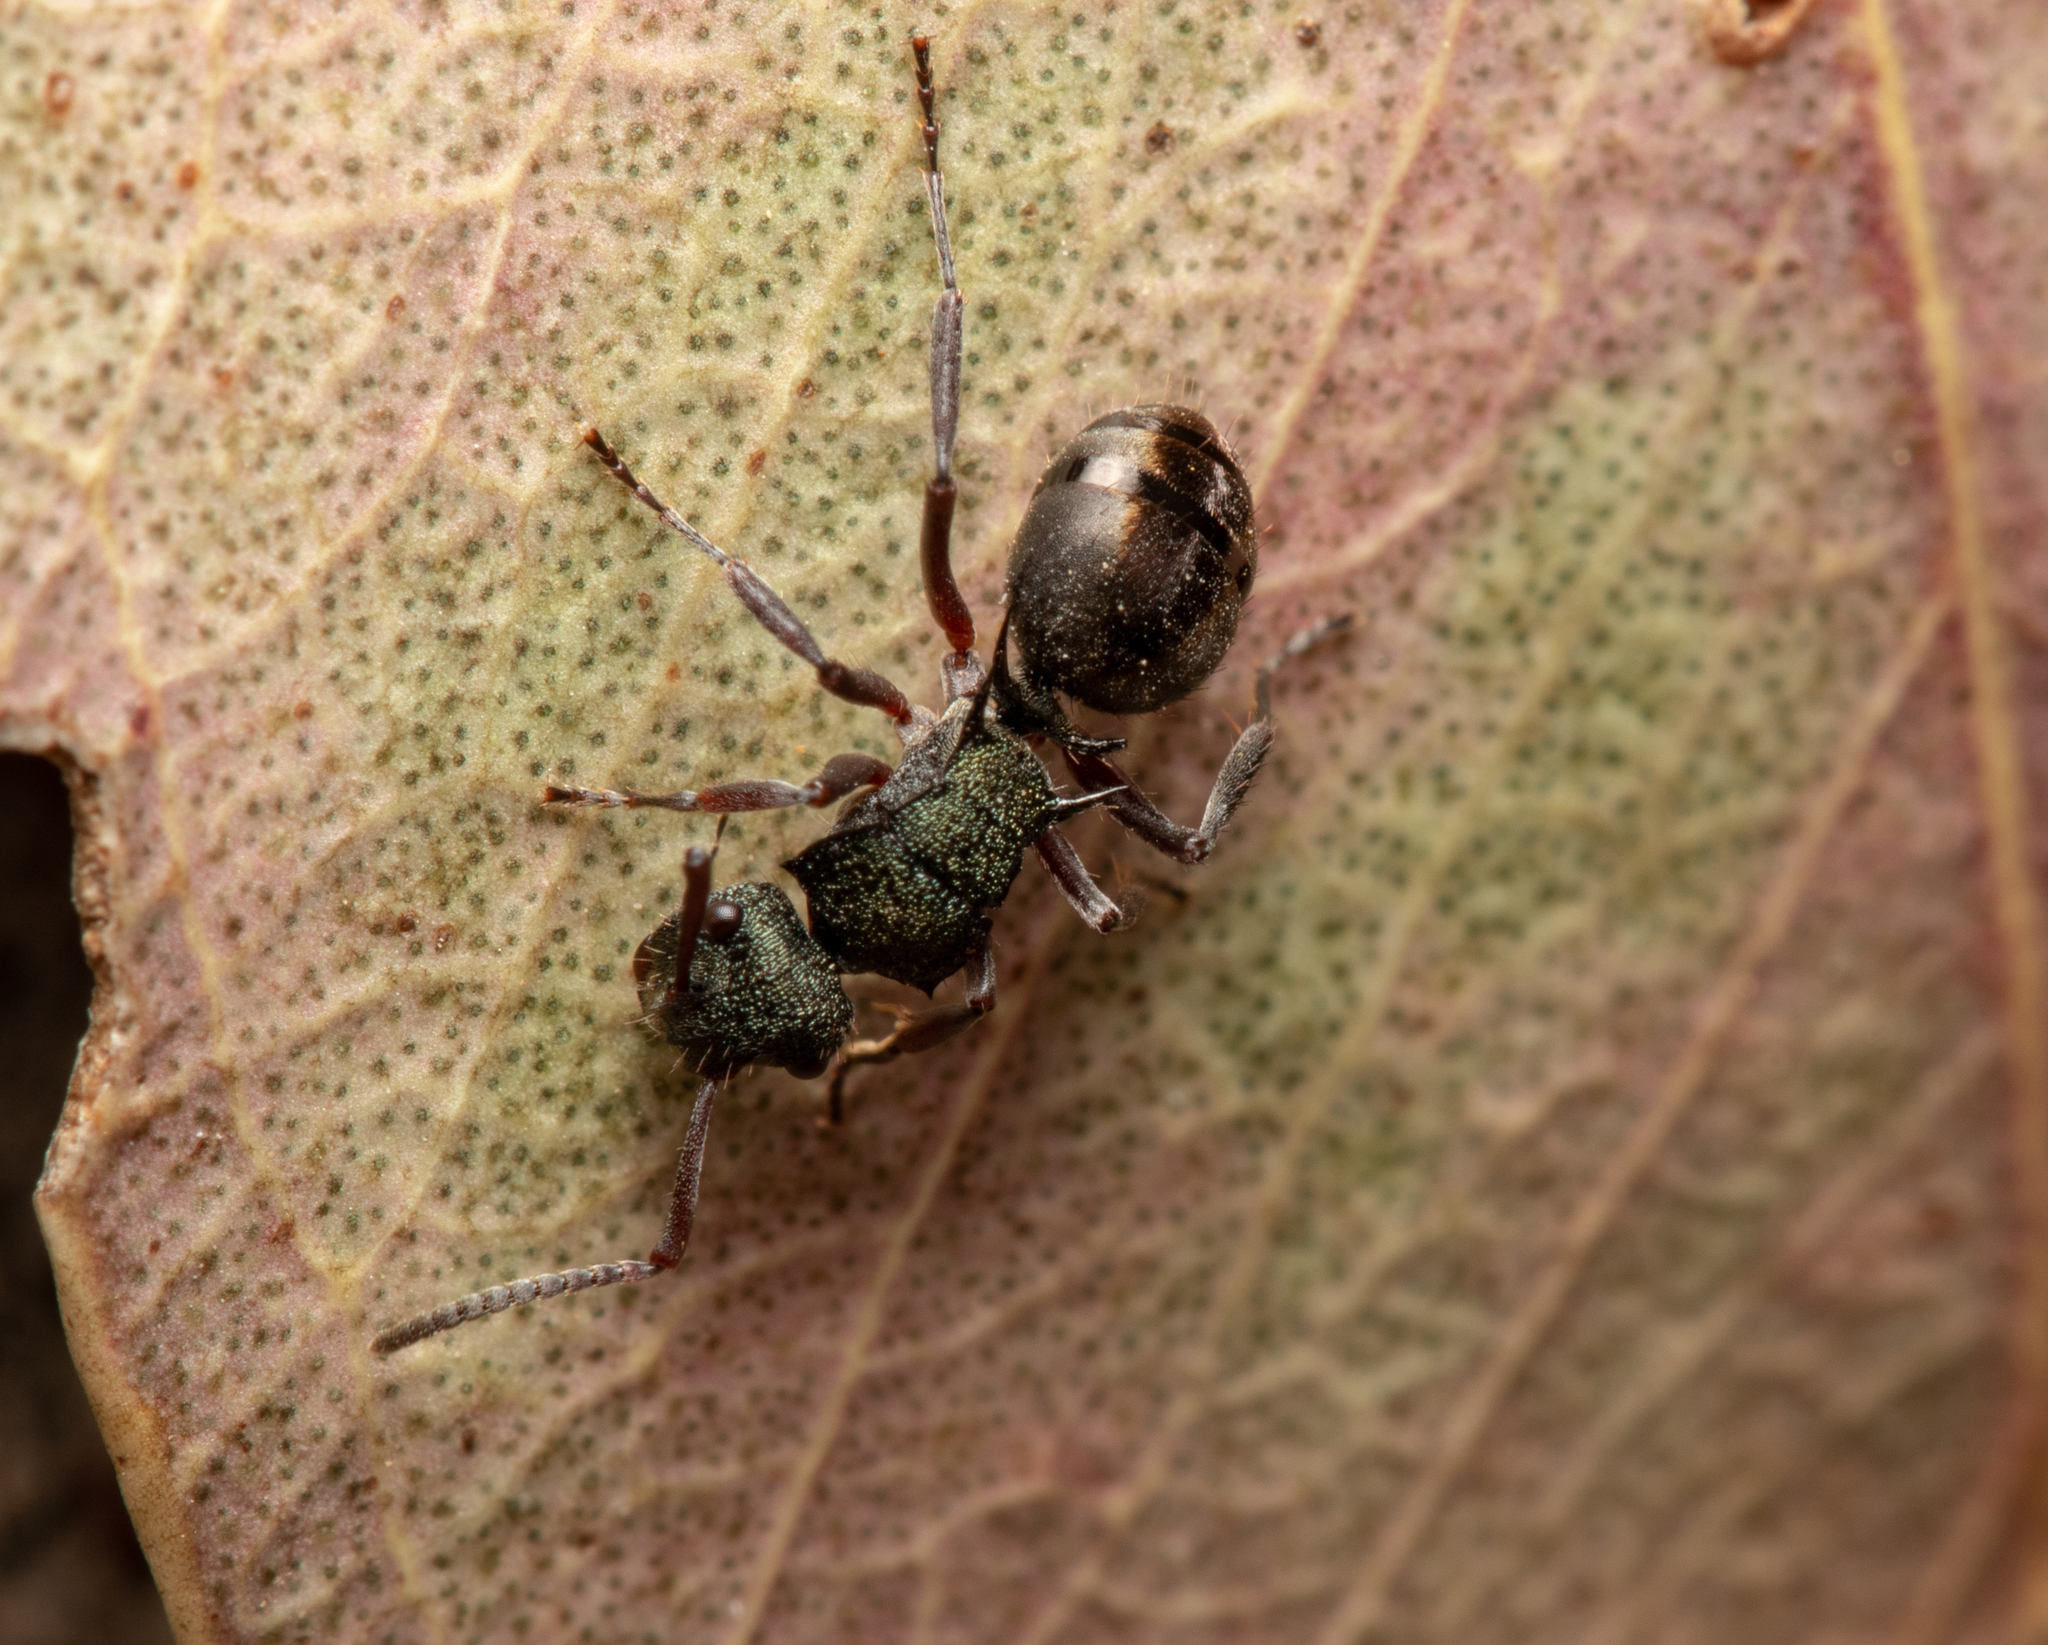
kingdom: Animalia
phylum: Arthropoda
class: Insecta
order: Hymenoptera
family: Formicidae
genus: Polyrhachis
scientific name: Polyrhachis hookeri
